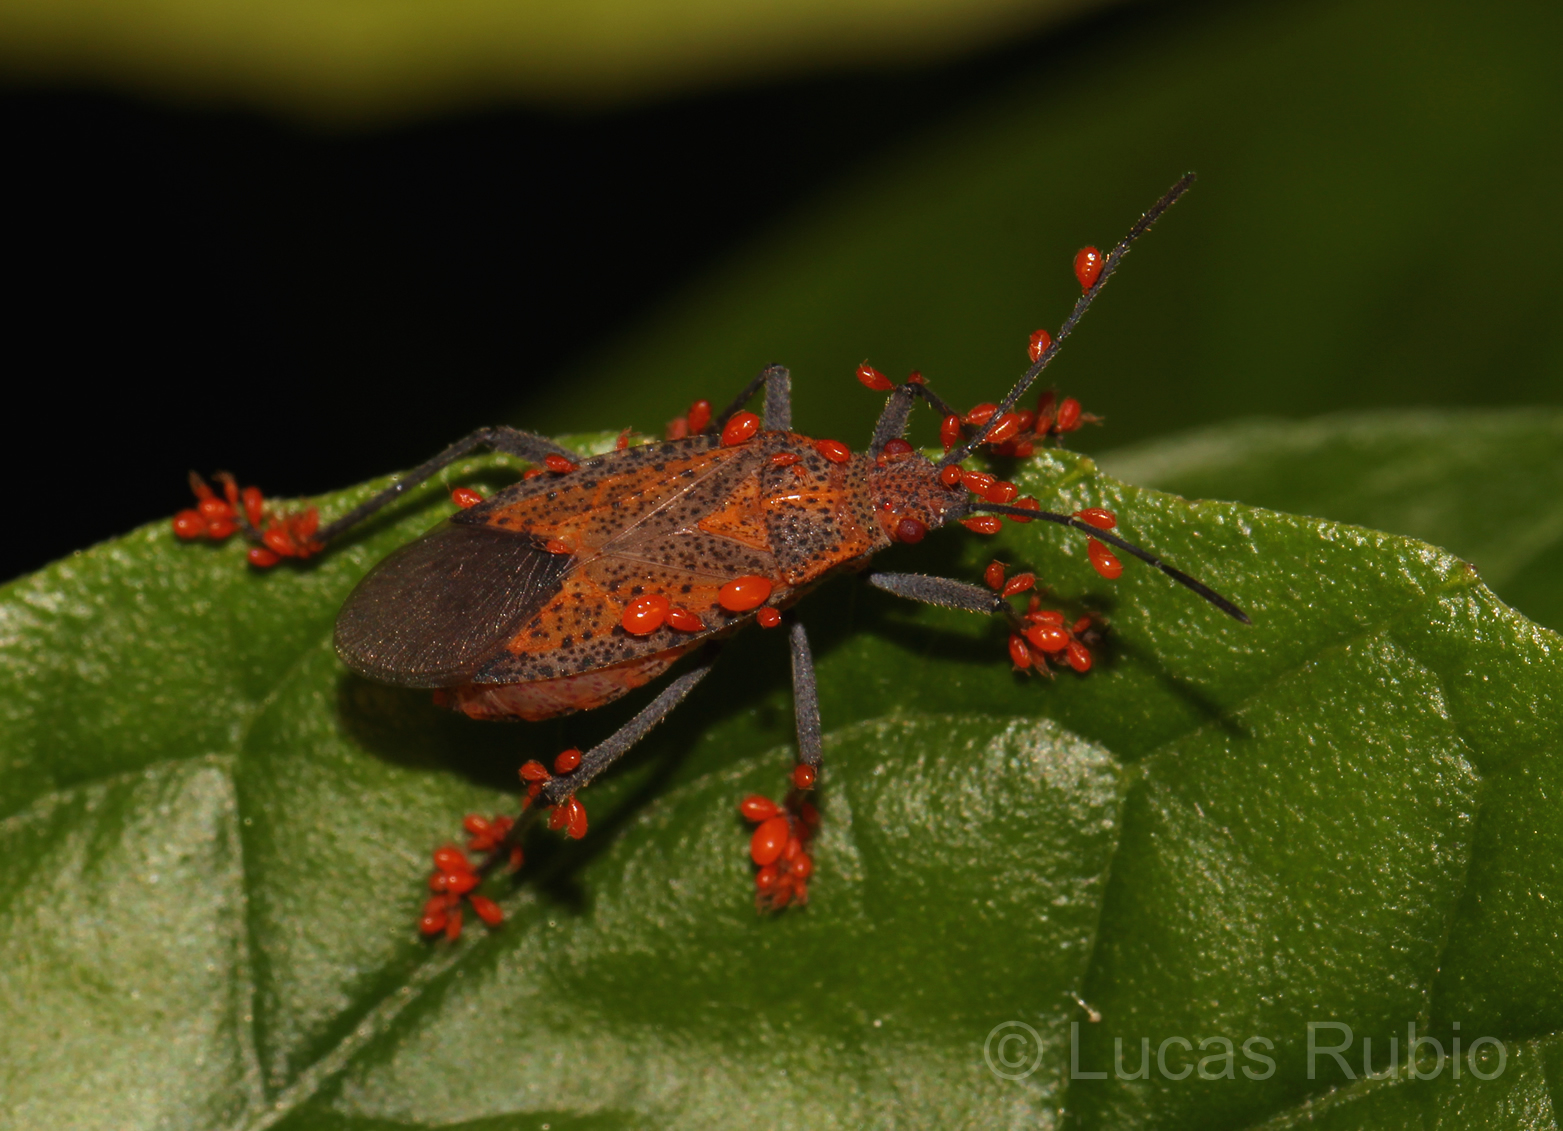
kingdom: Animalia
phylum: Arthropoda
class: Insecta
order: Hemiptera
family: Rhopalidae
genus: Jadera
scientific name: Jadera choprai
